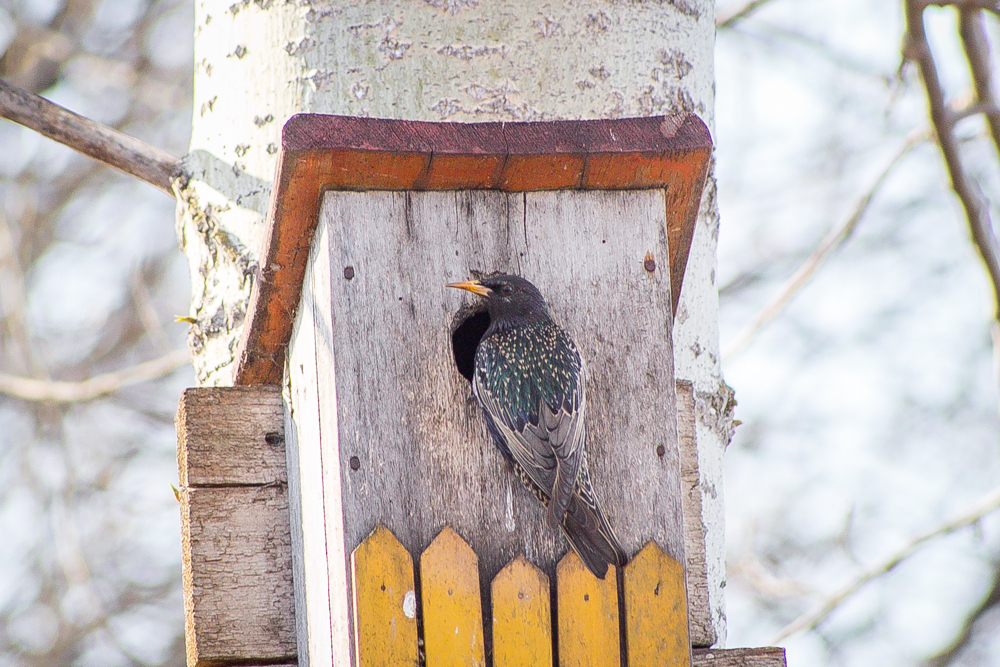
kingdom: Animalia
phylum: Chordata
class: Aves
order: Passeriformes
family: Sturnidae
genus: Sturnus
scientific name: Sturnus vulgaris
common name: Common starling
